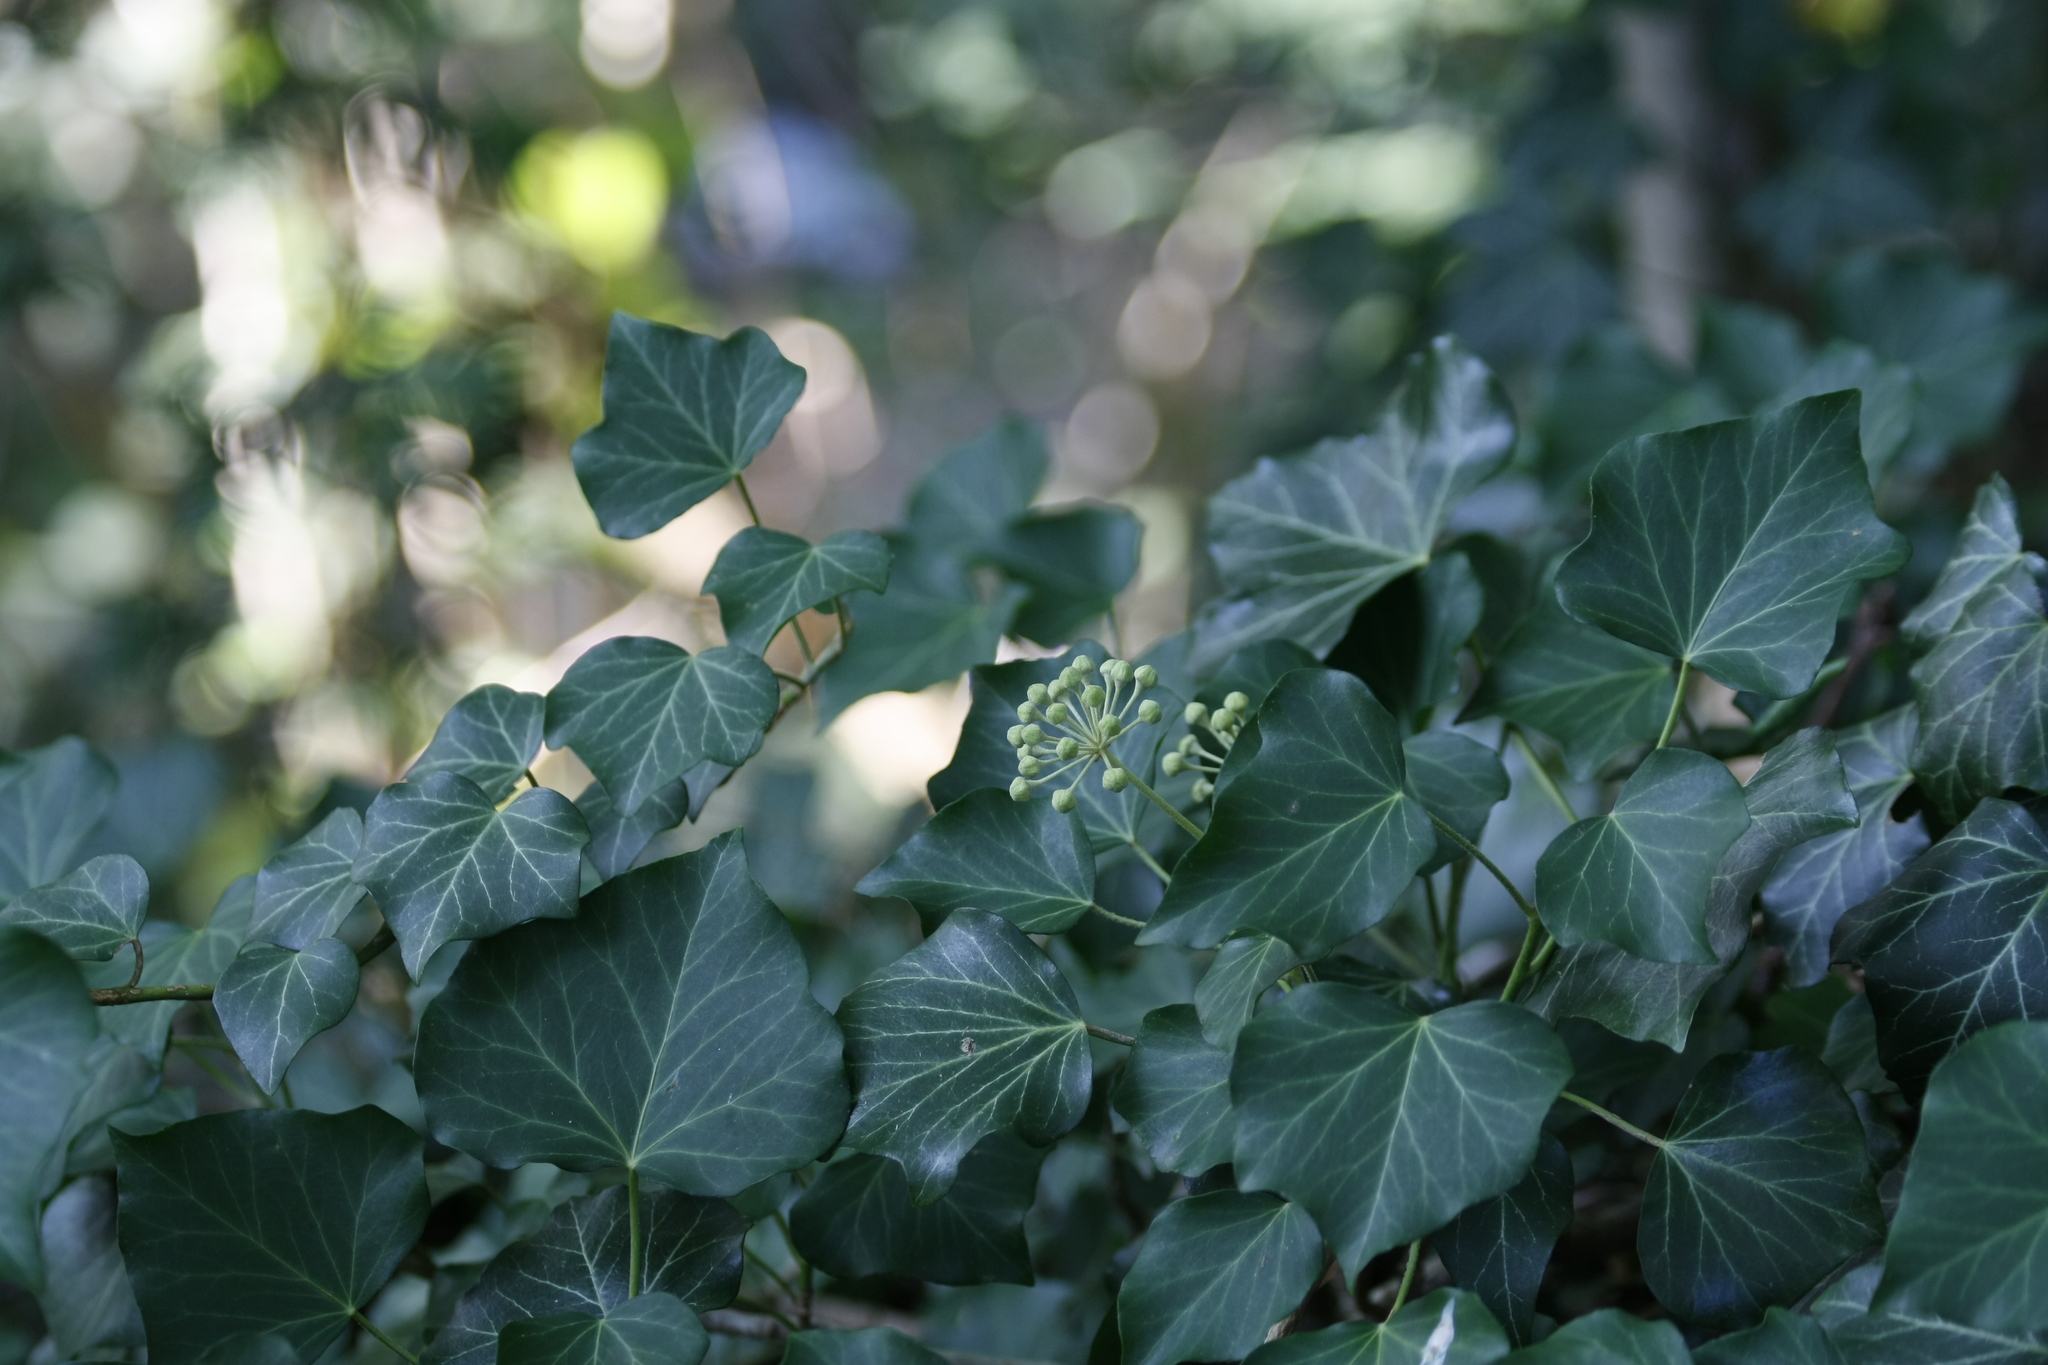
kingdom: Plantae
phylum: Tracheophyta
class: Magnoliopsida
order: Apiales
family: Araliaceae
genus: Hedera
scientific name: Hedera helix
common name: Ivy
